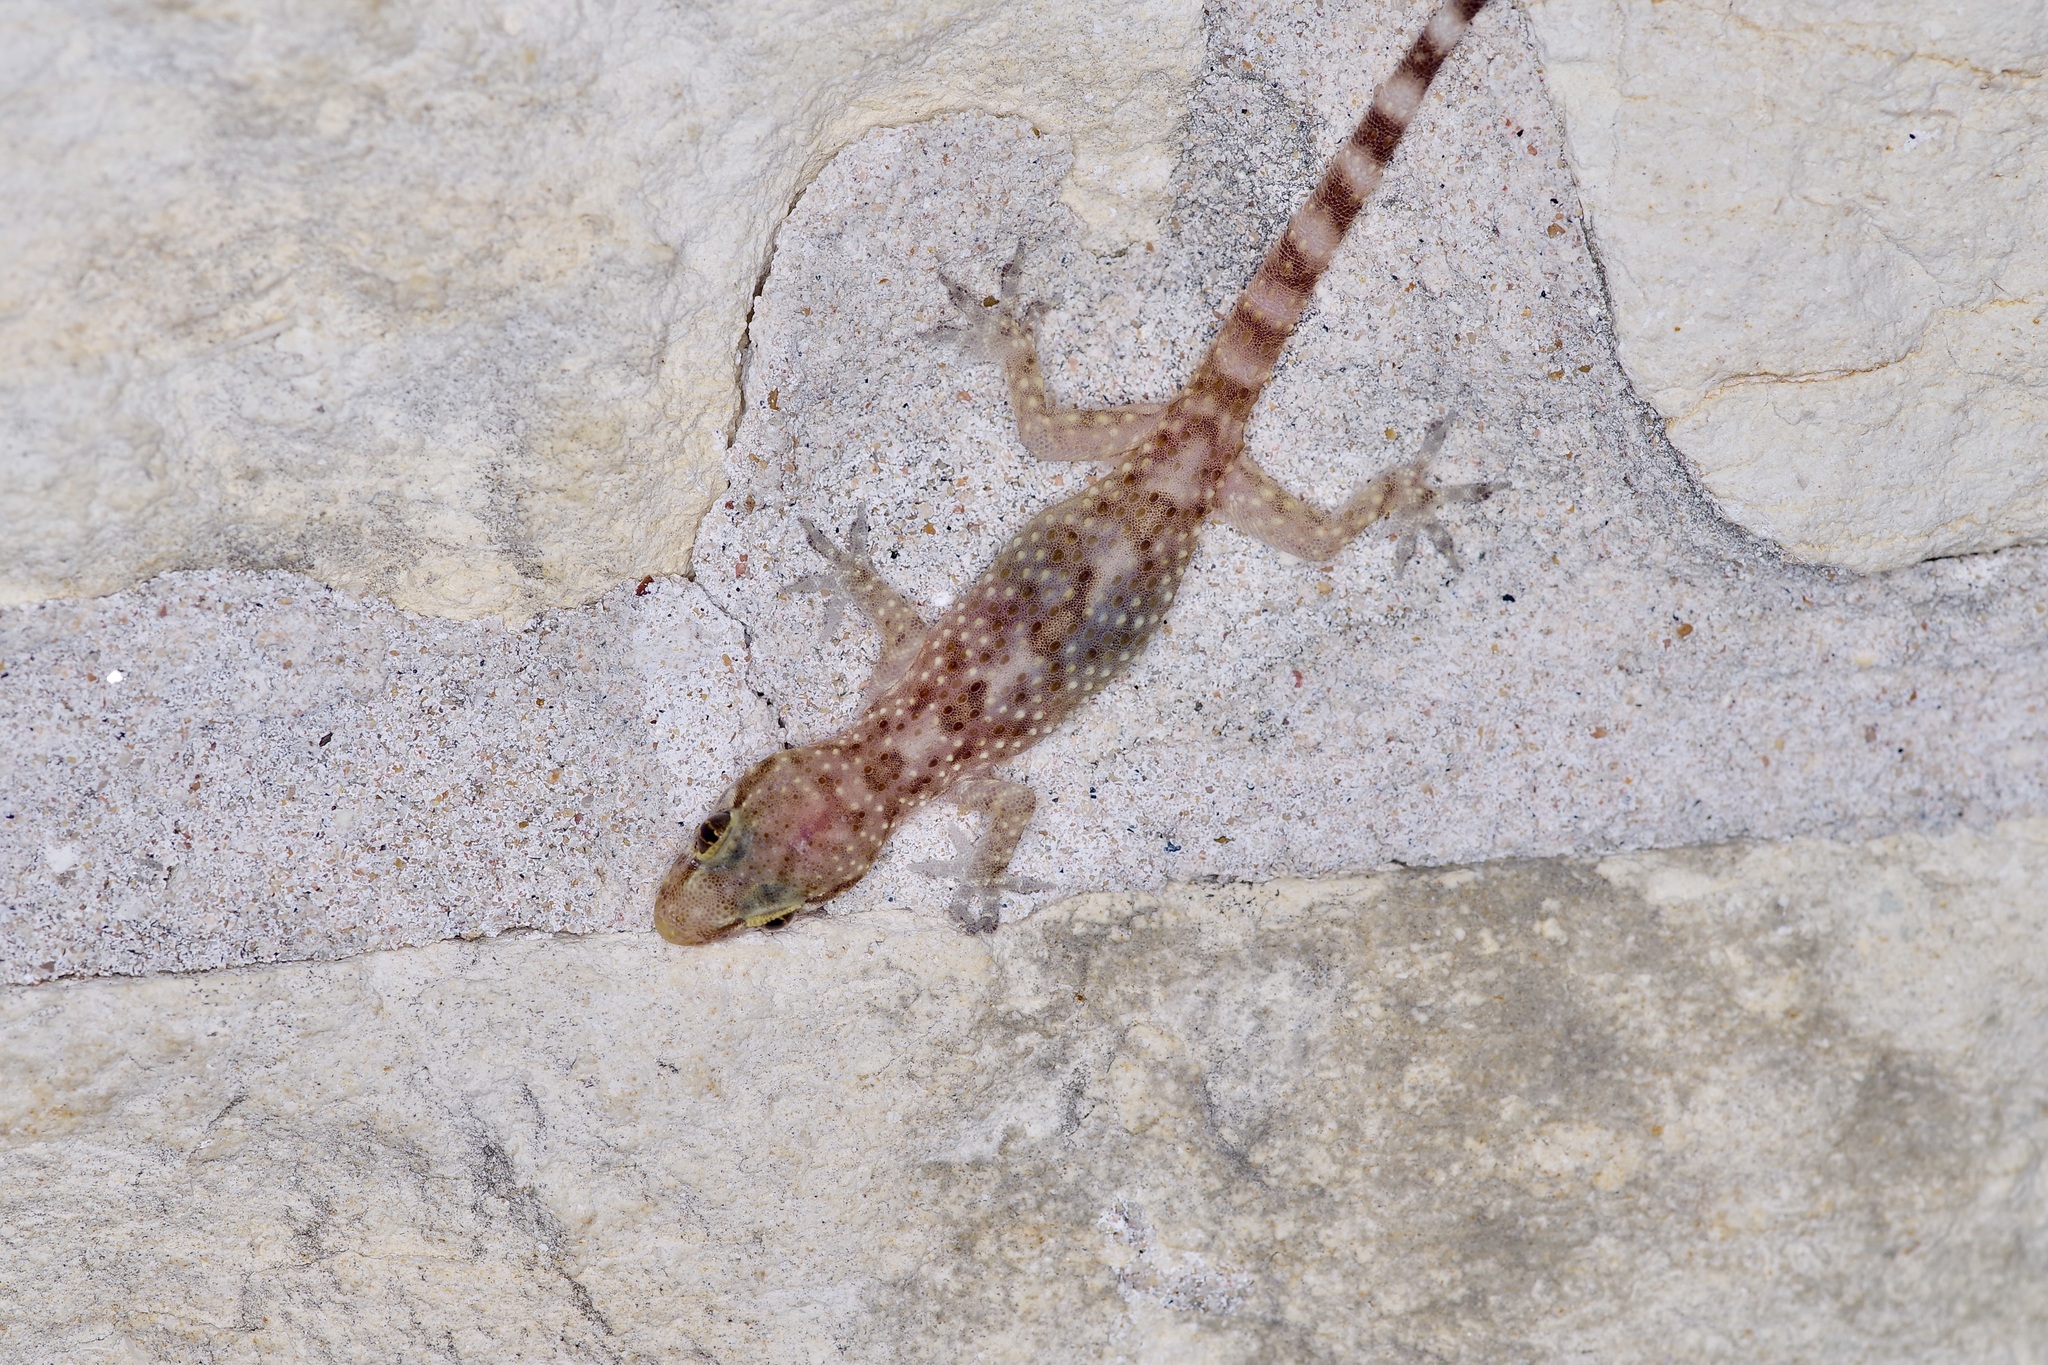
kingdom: Animalia
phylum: Chordata
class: Squamata
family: Gekkonidae
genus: Hemidactylus
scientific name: Hemidactylus turcicus
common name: Turkish gecko
